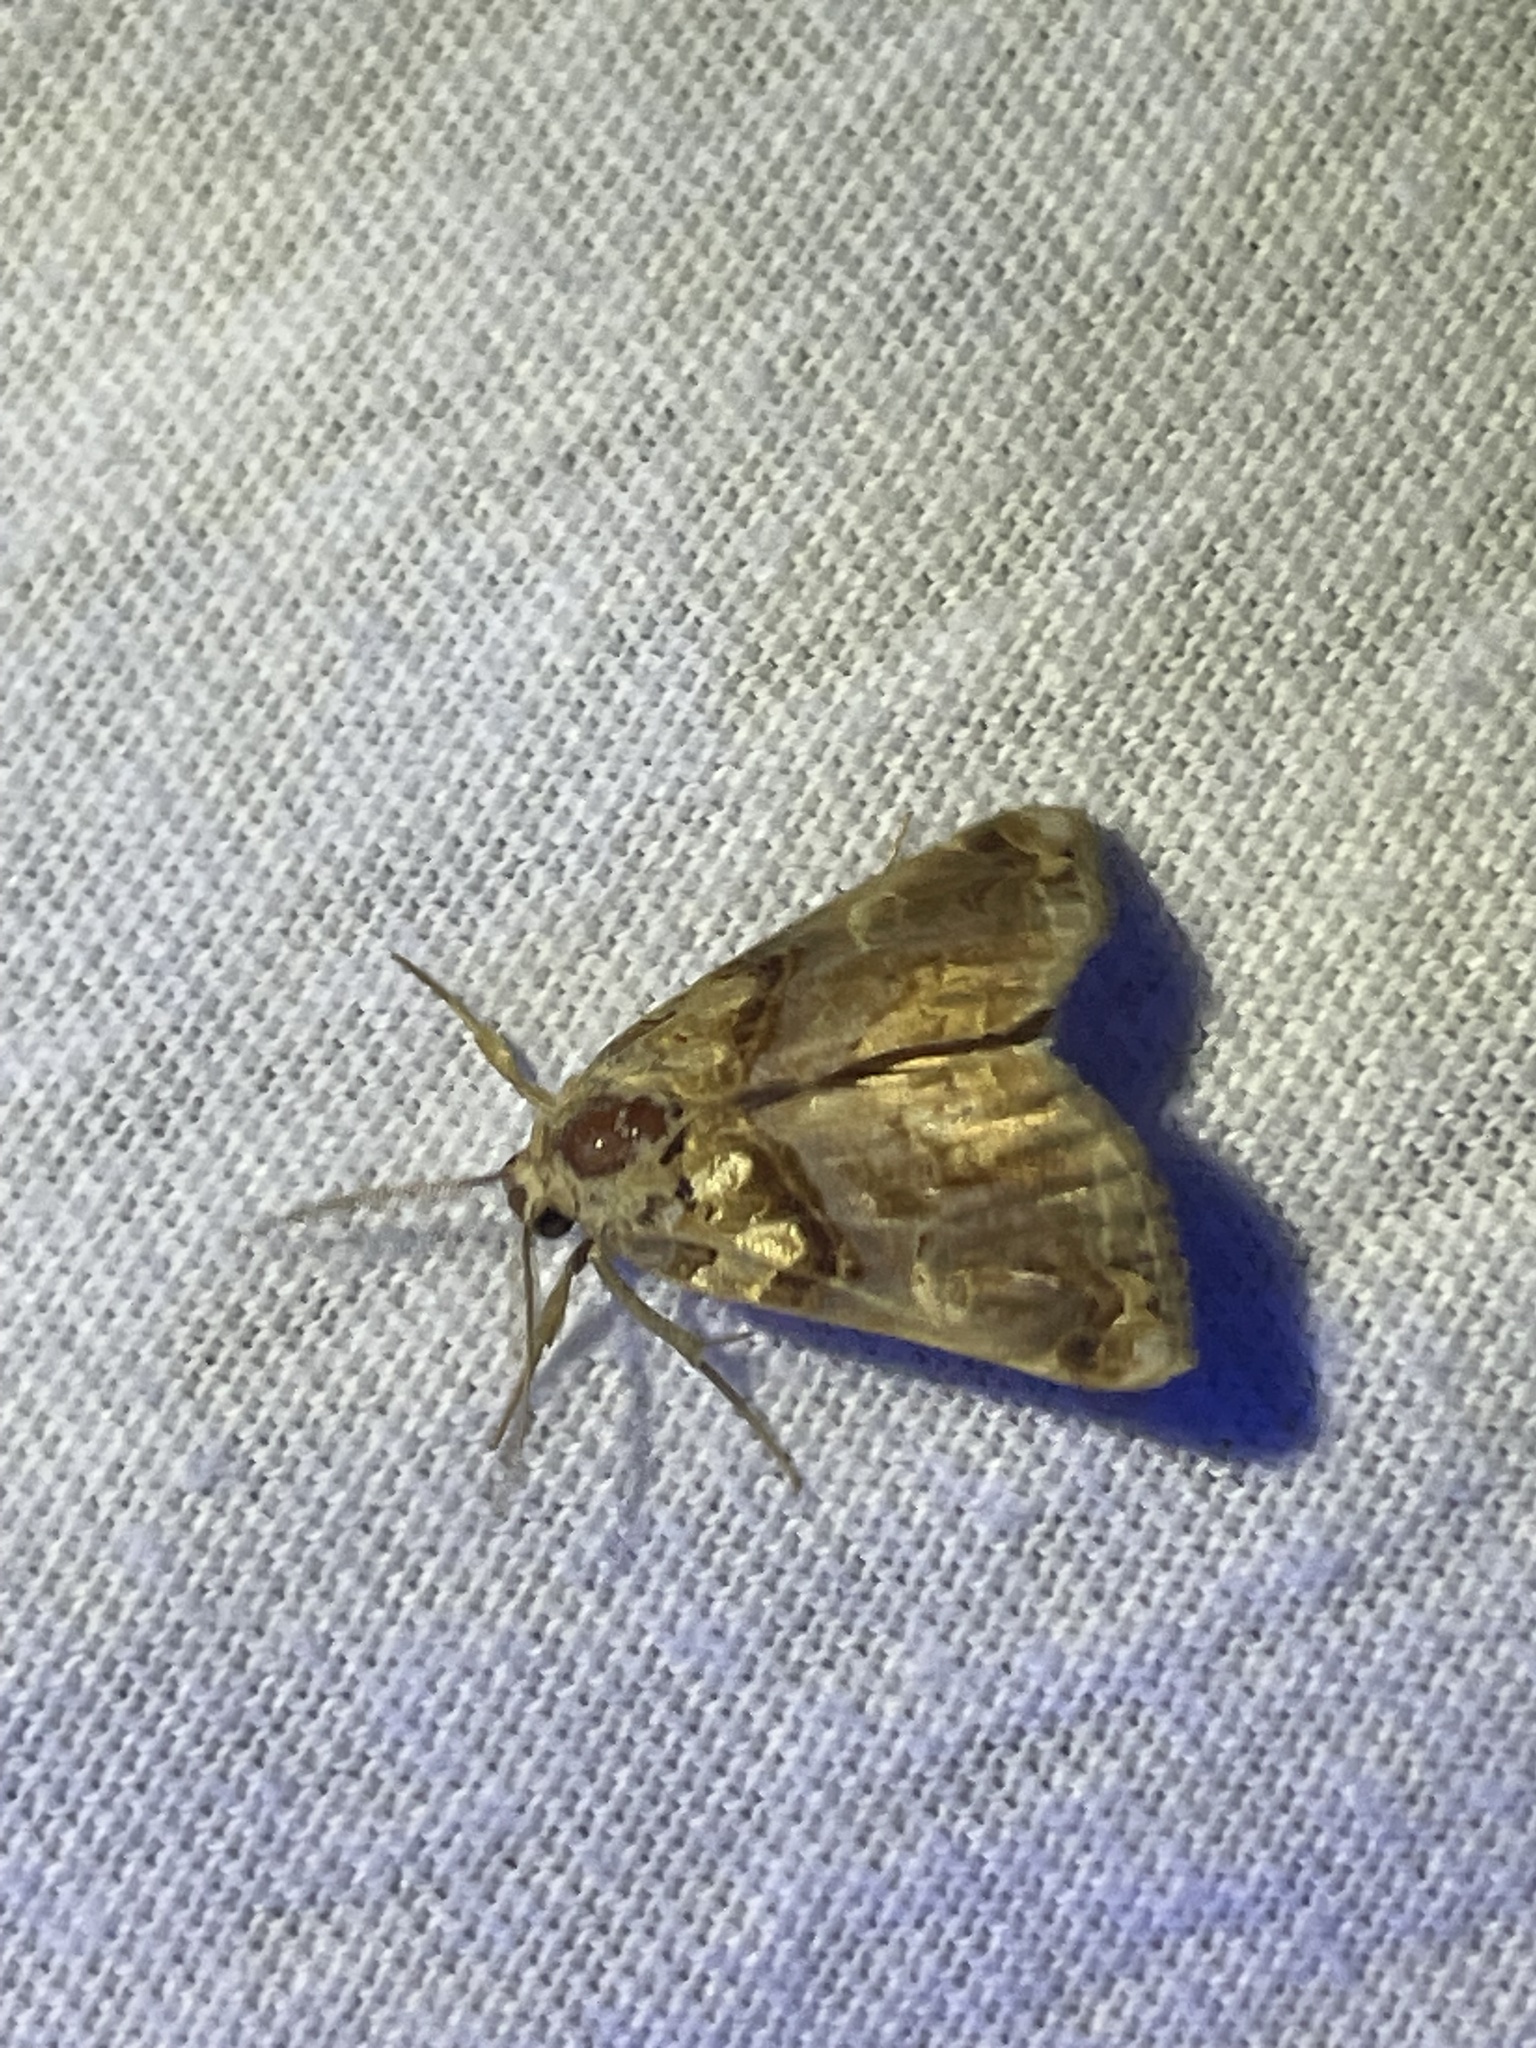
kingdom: Animalia
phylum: Arthropoda
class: Insecta
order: Lepidoptera
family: Erebidae
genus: Plusiodonta
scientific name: Plusiodonta compressipalpis
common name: Moonseed moth
